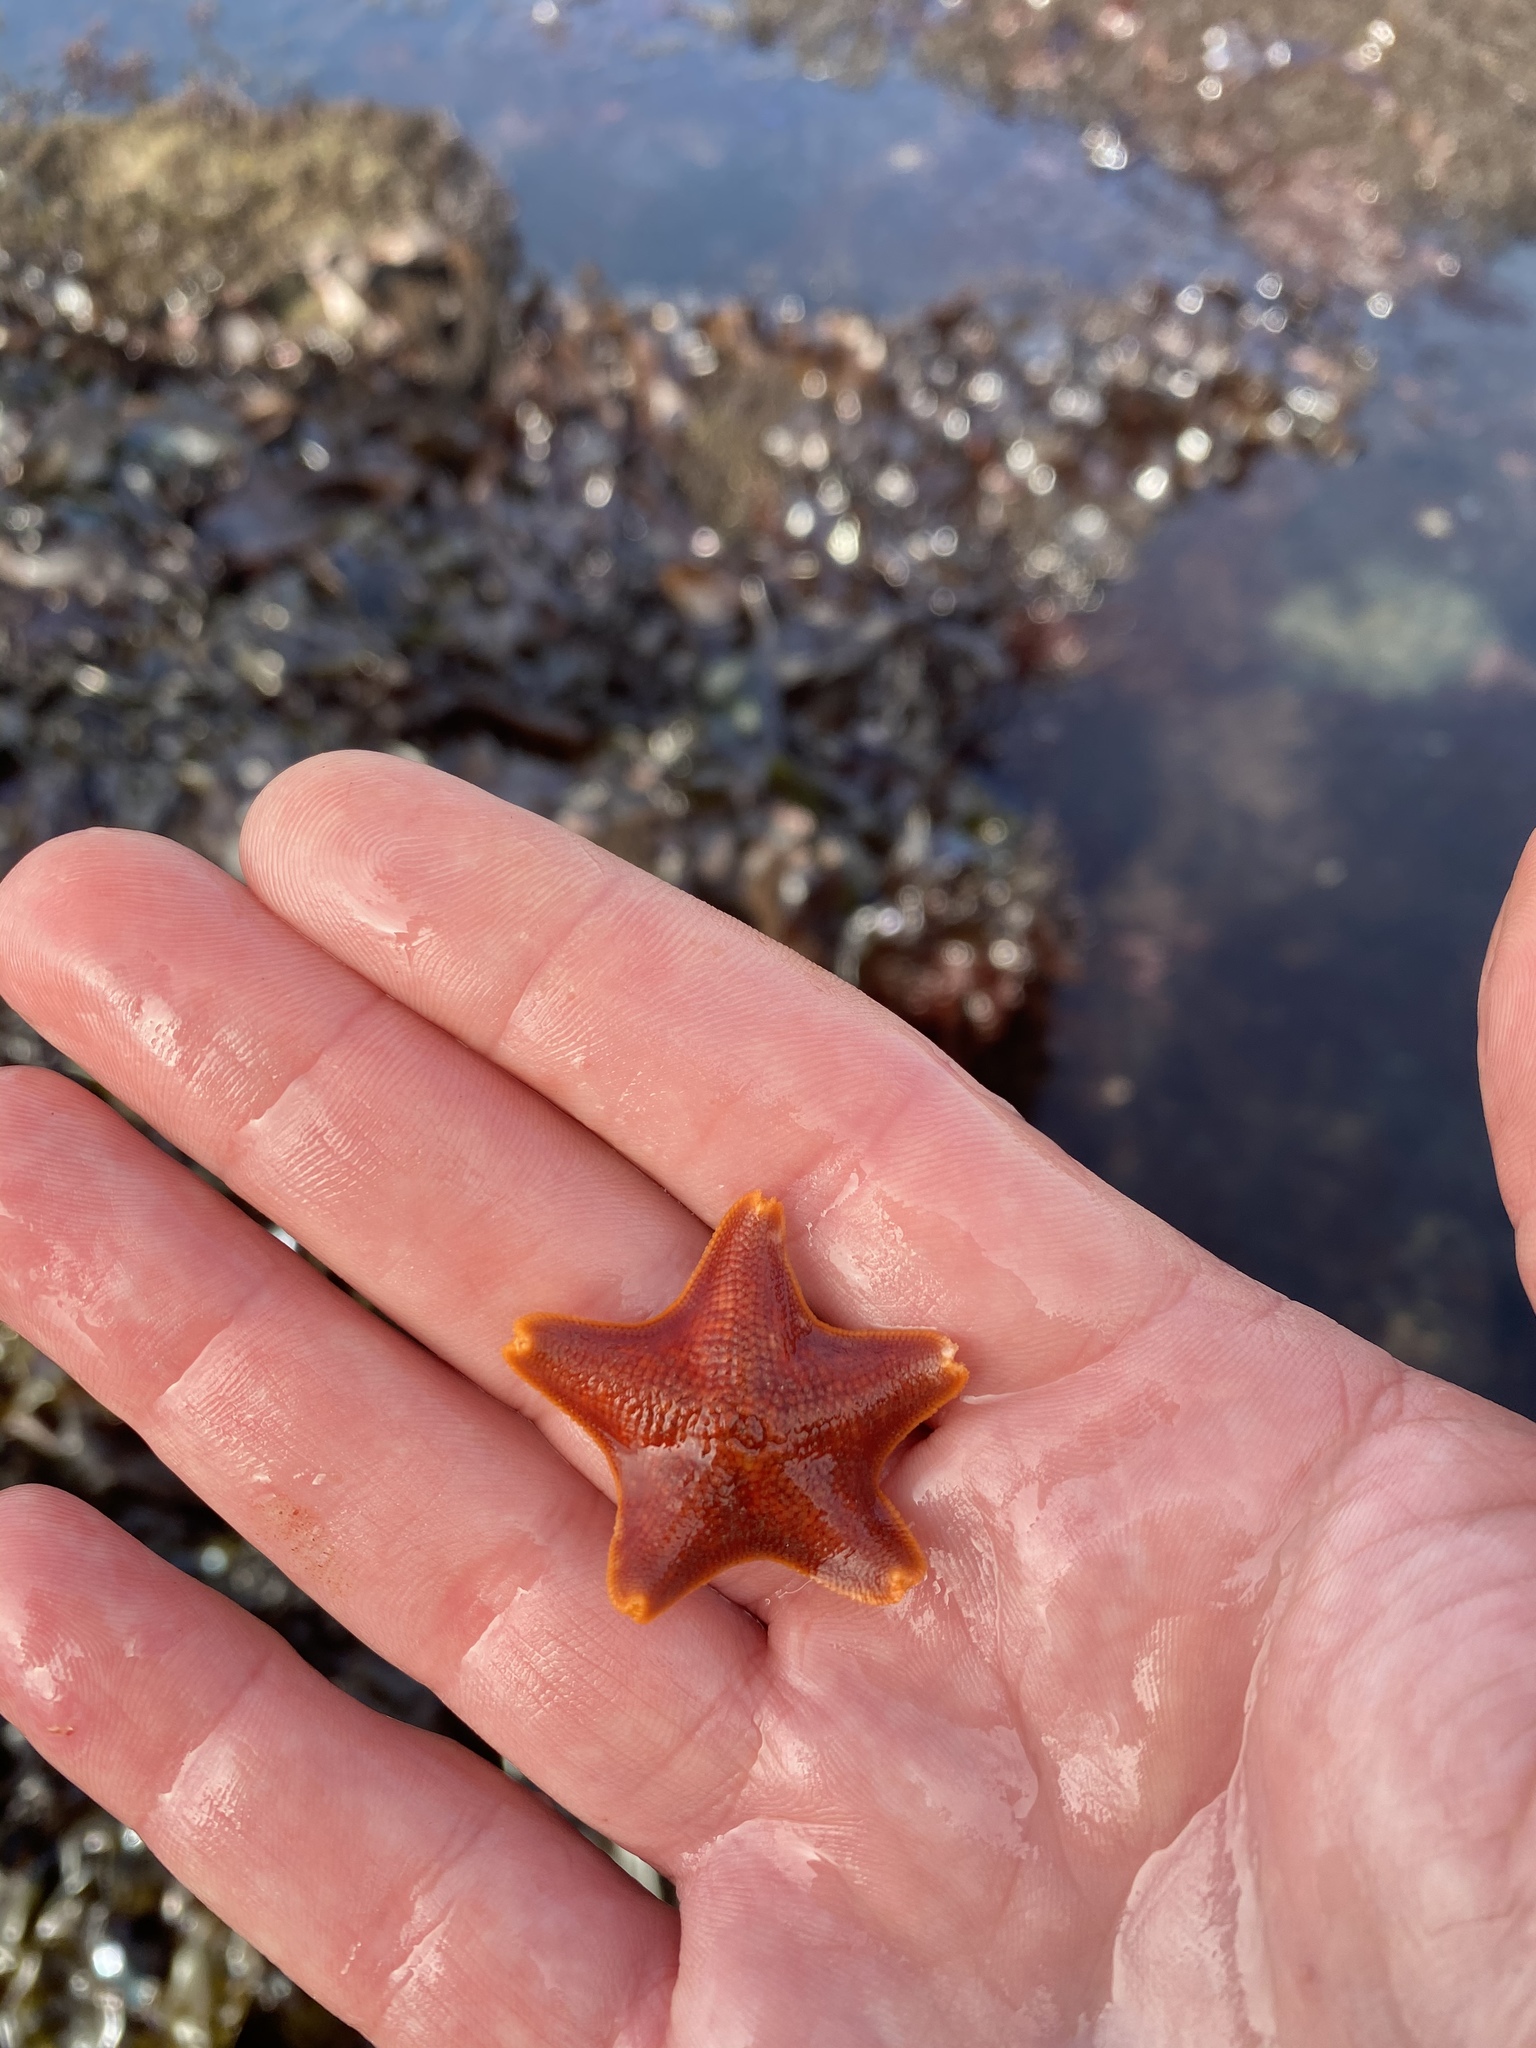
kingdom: Animalia
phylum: Echinodermata
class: Asteroidea
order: Valvatida
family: Asterinidae
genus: Patiria
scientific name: Patiria miniata
